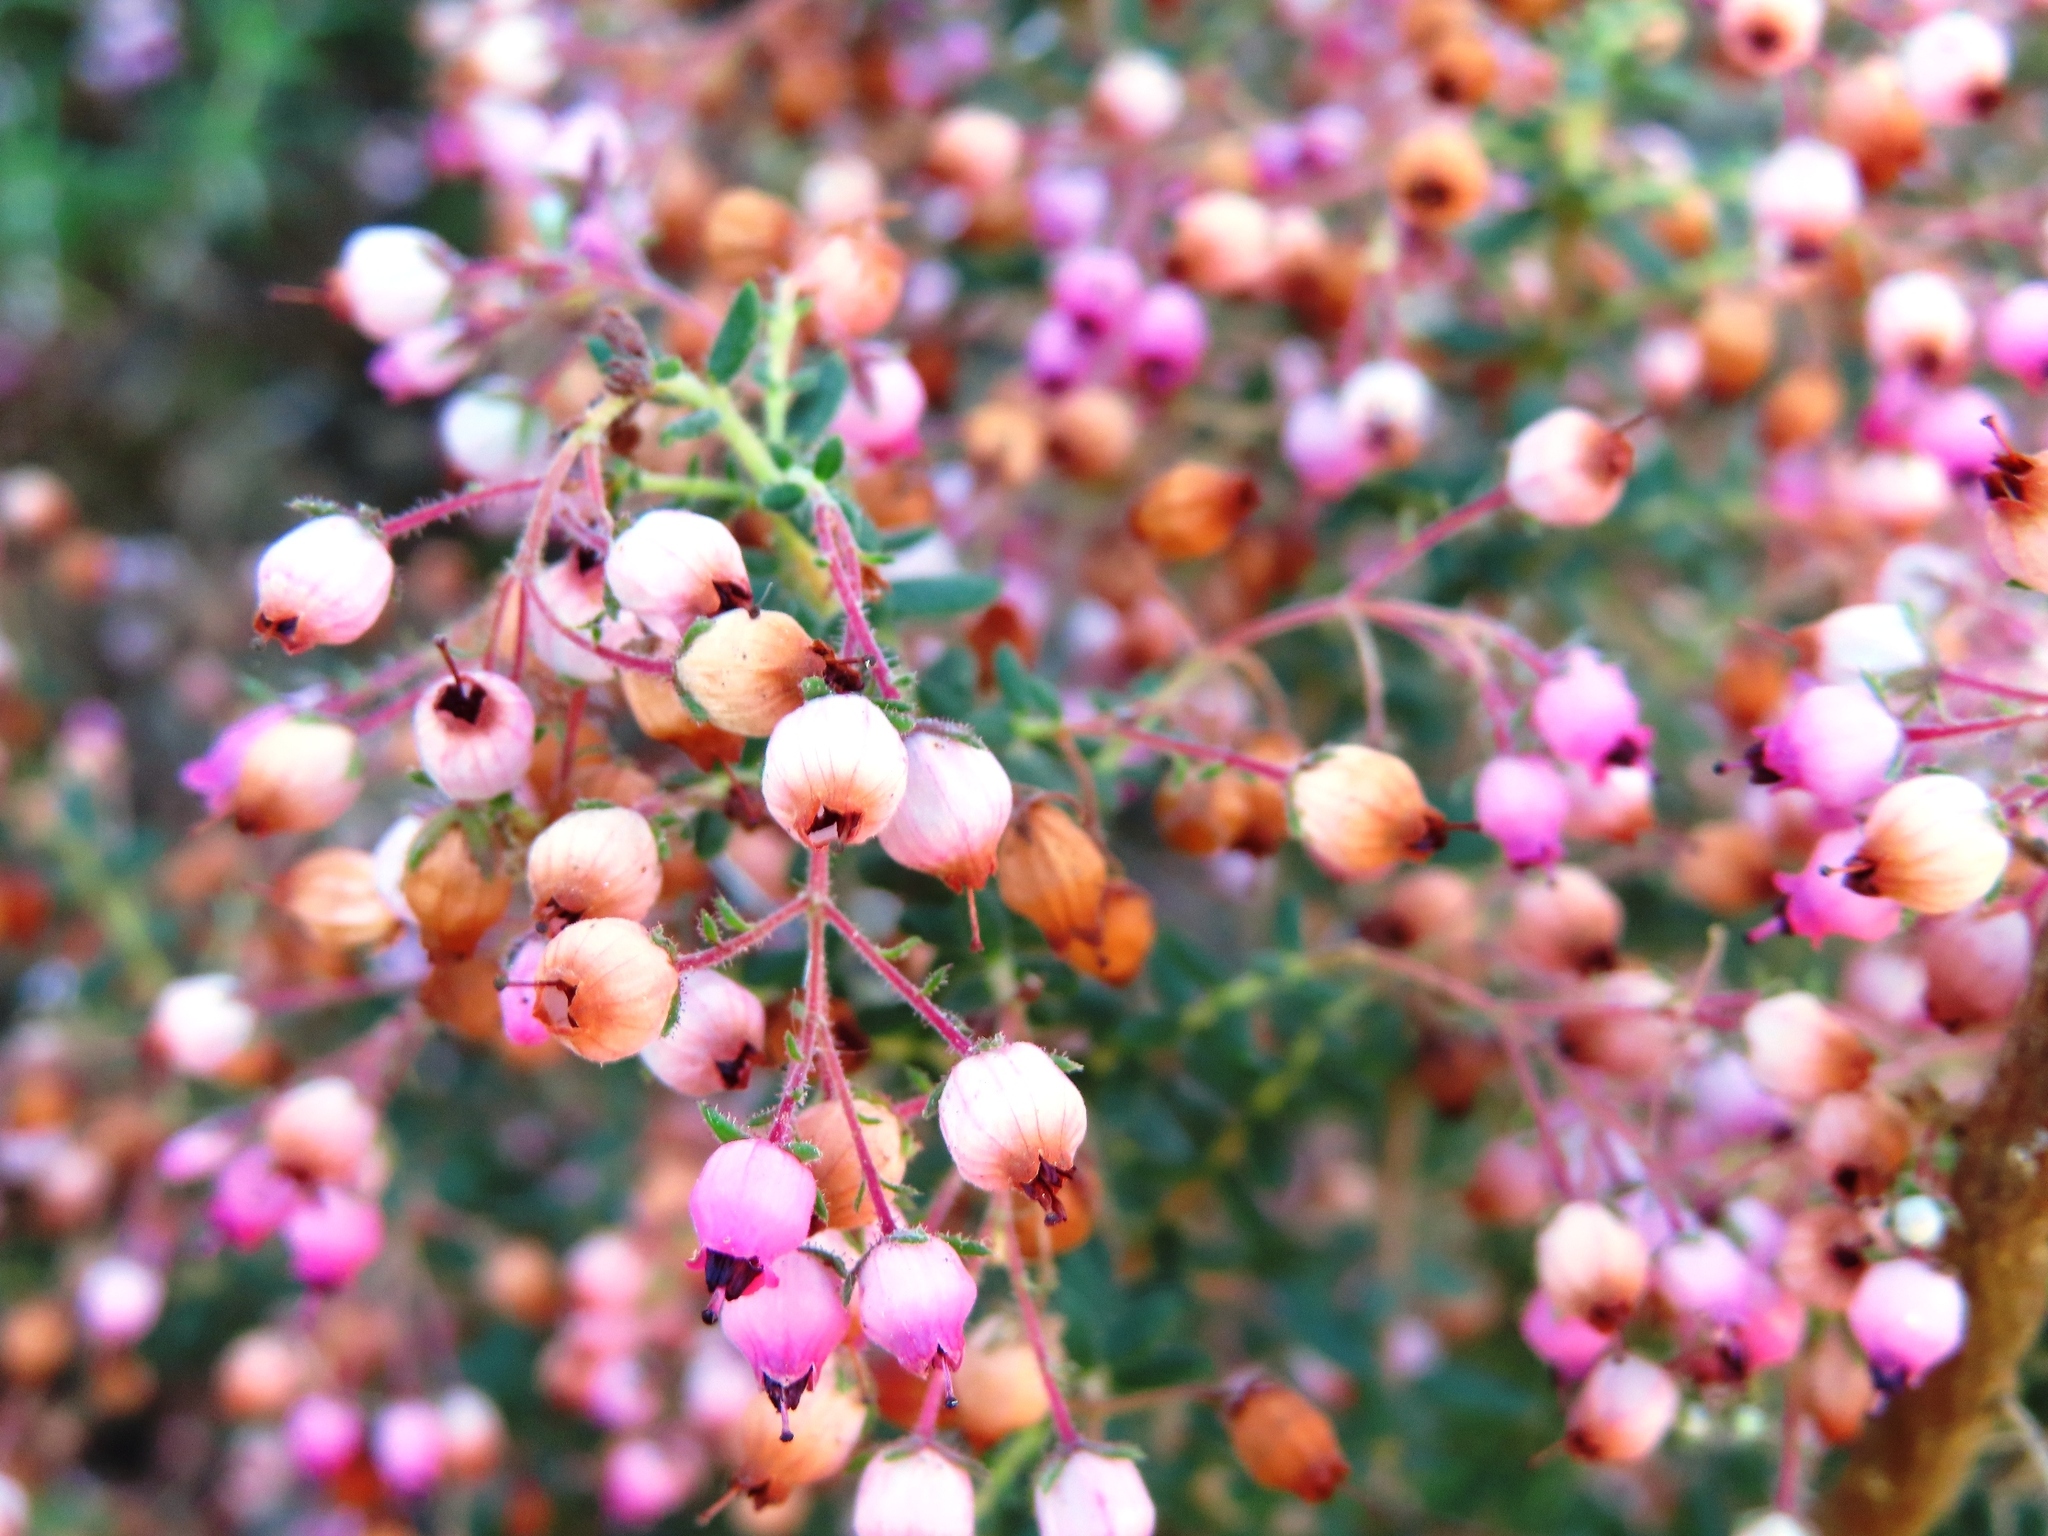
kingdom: Plantae
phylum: Tracheophyta
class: Magnoliopsida
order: Ericales
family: Ericaceae
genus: Erica
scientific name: Erica hirta
